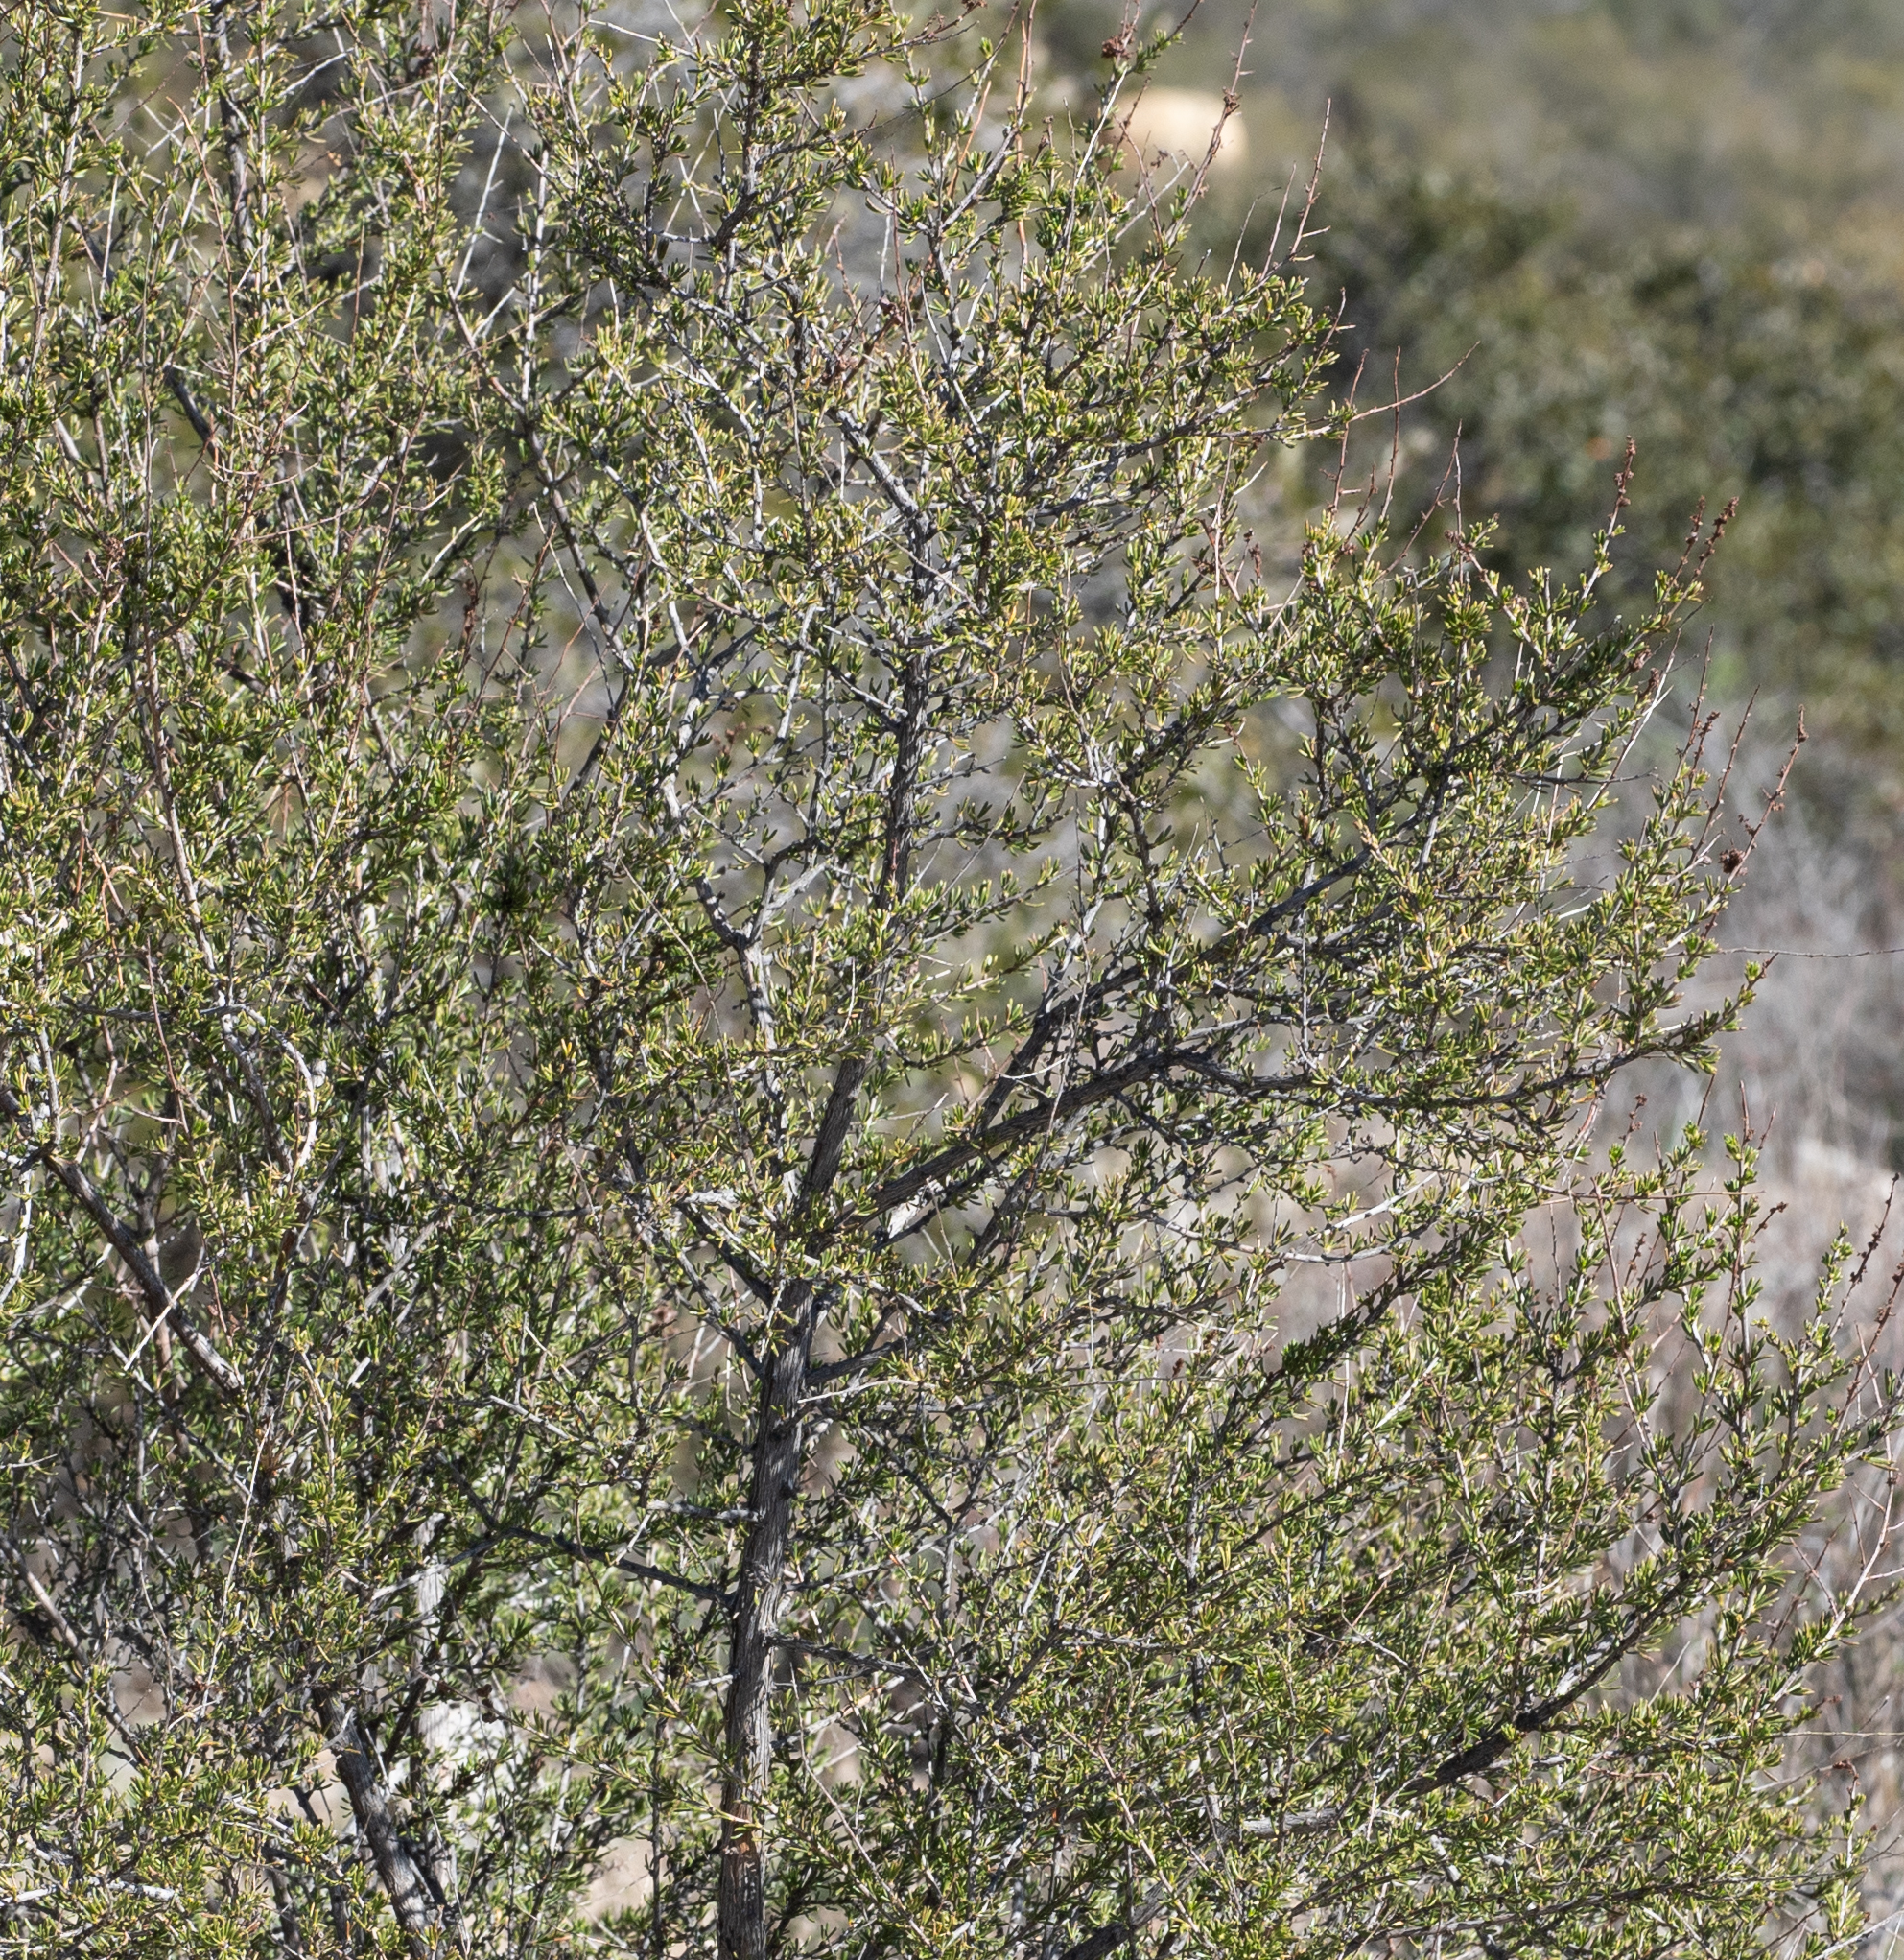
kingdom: Plantae
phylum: Tracheophyta
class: Magnoliopsida
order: Rosales
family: Rosaceae
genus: Adenostoma
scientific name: Adenostoma fasciculatum
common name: Chamise
